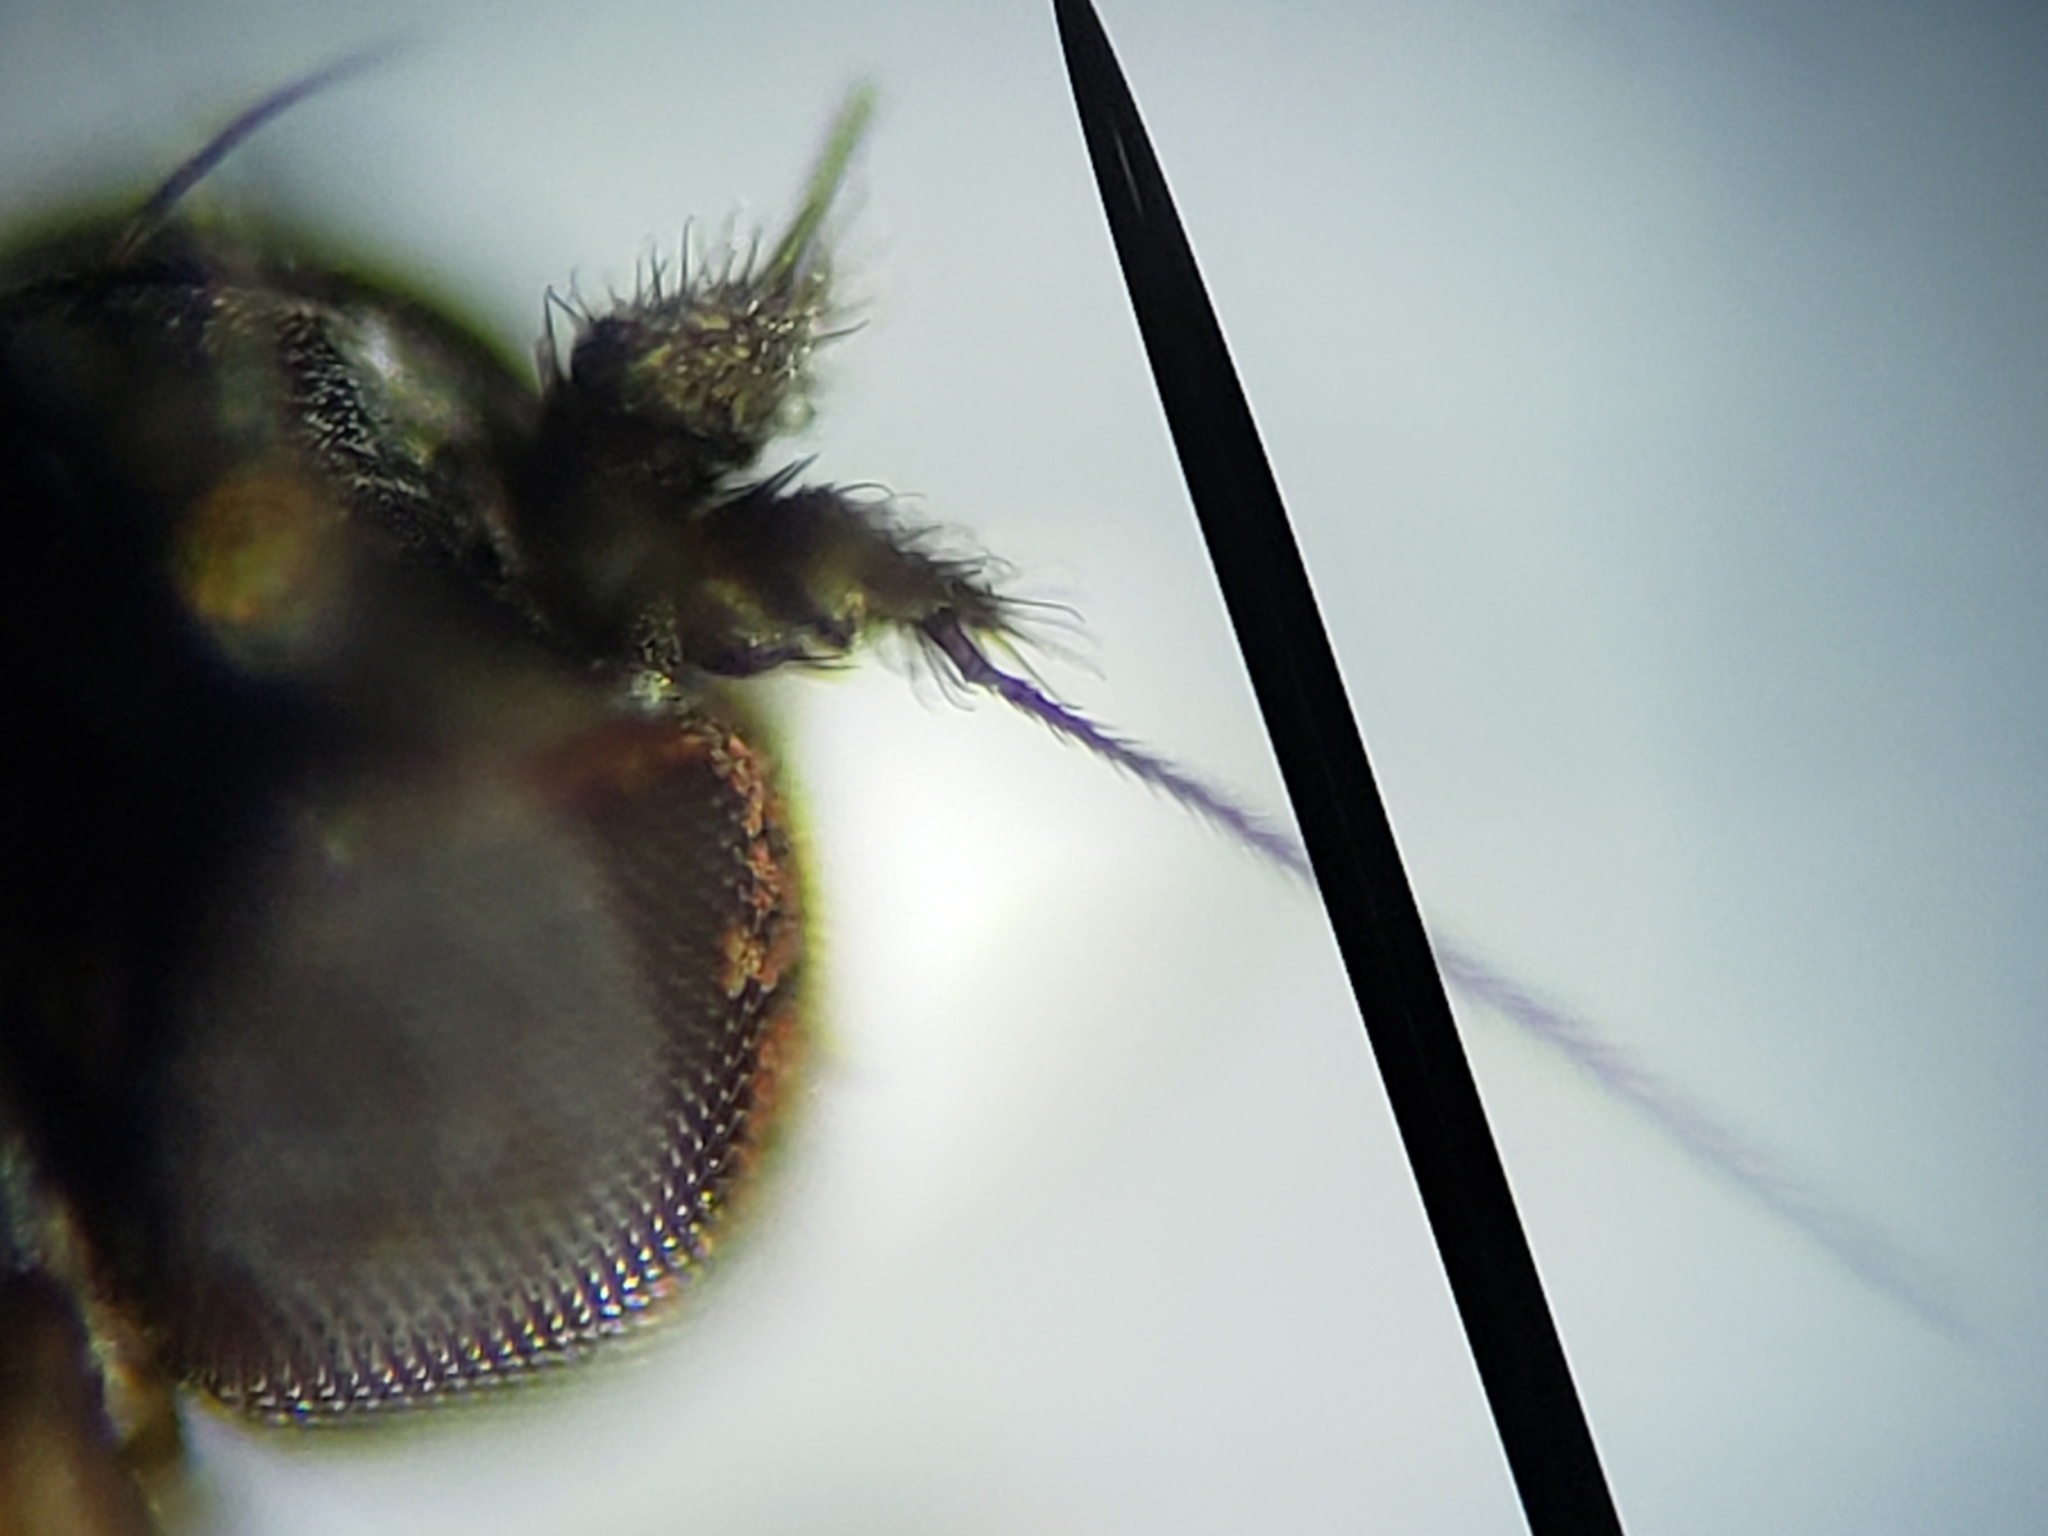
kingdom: Animalia
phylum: Arthropoda
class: Insecta
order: Diptera
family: Dolichopodidae
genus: Chrysotus
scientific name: Chrysotus crosbyi
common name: Longlegged fly
